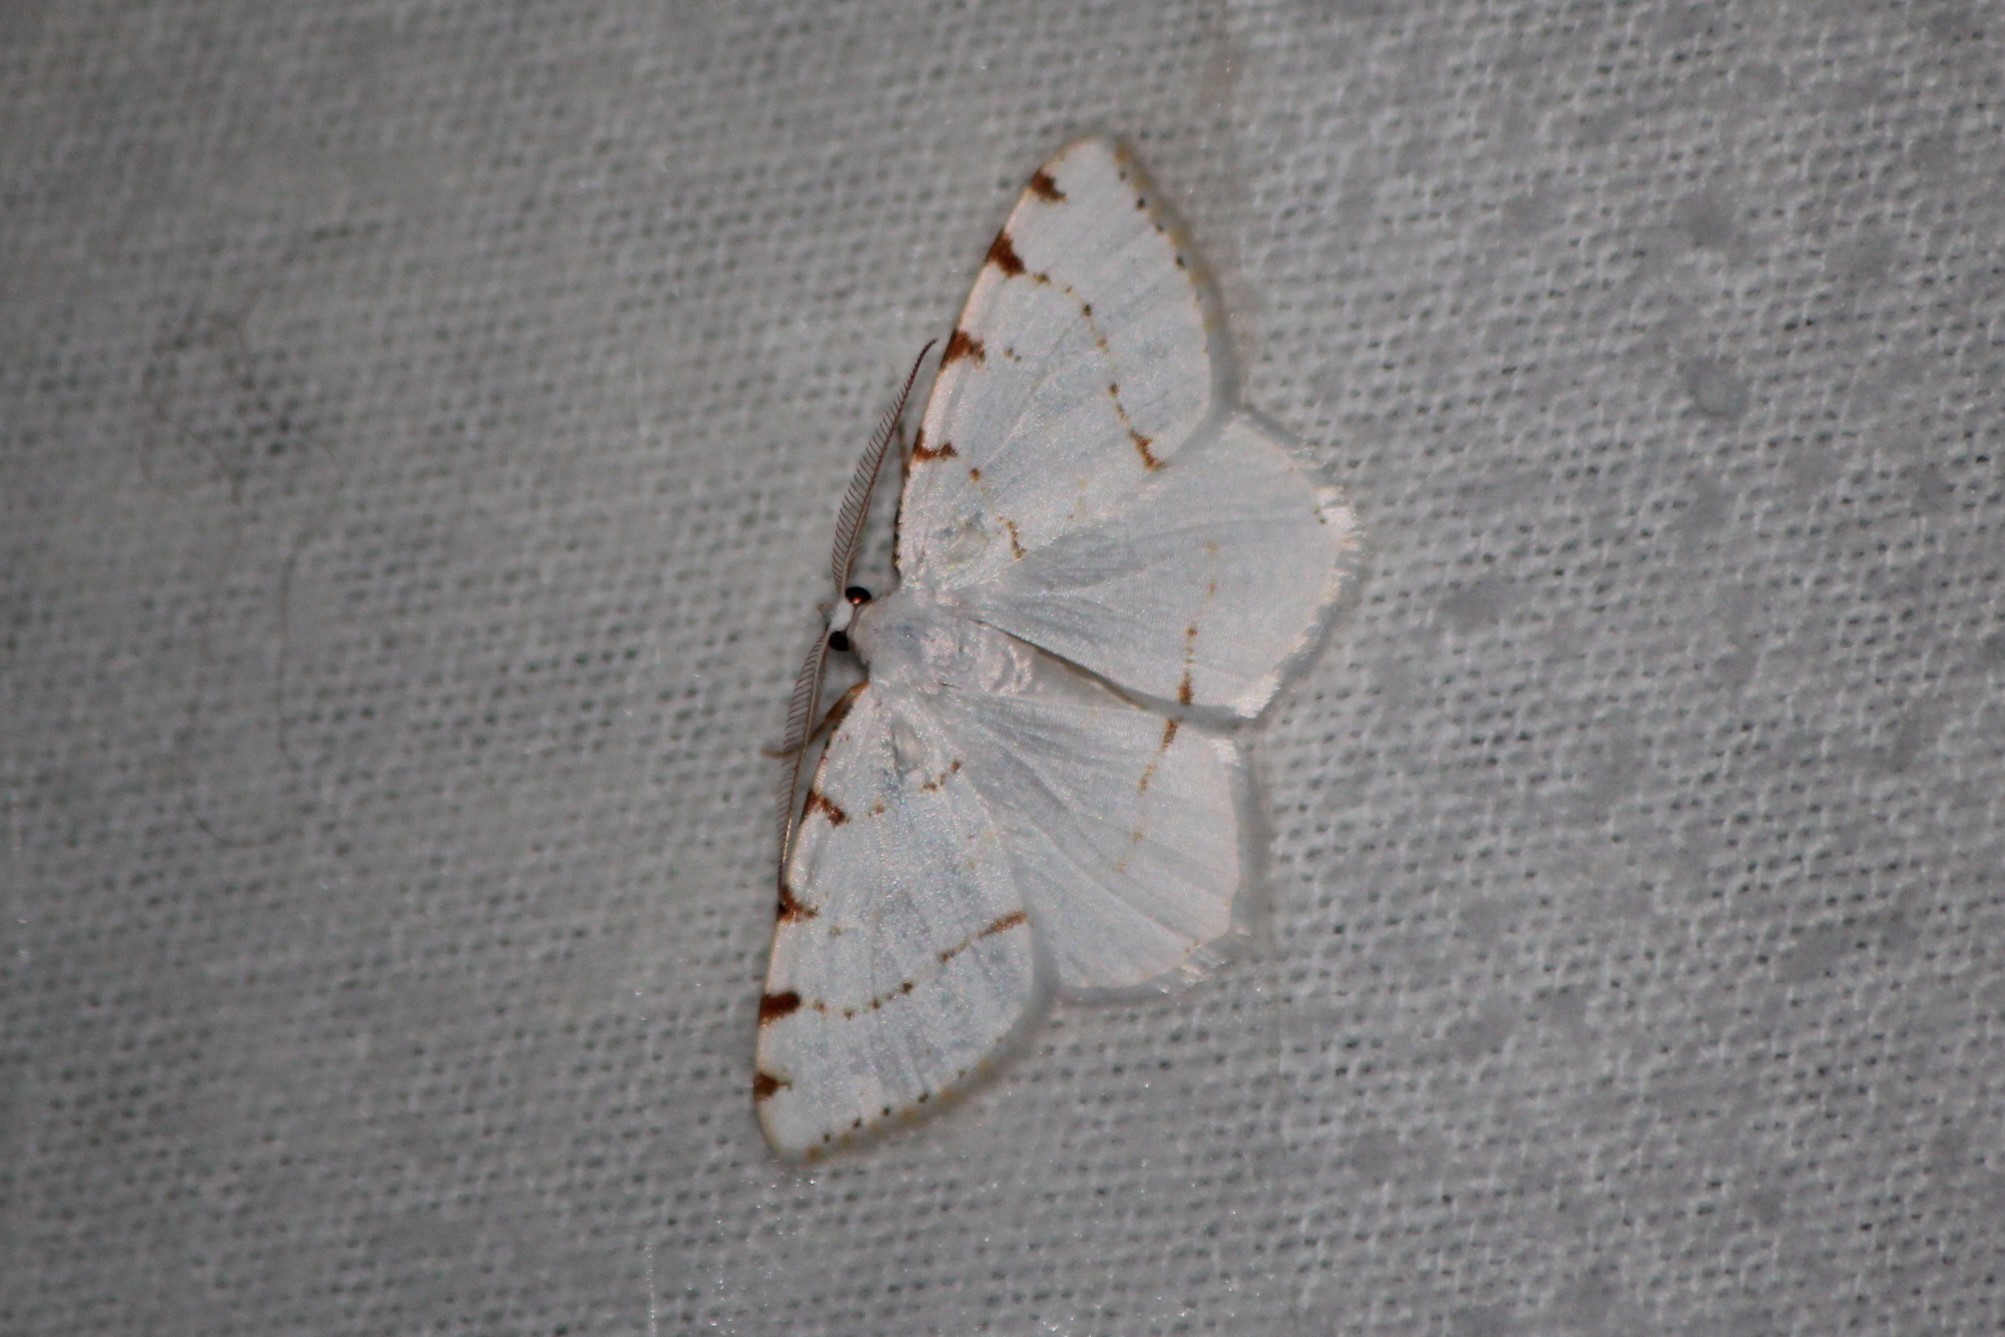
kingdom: Animalia
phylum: Arthropoda
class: Insecta
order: Lepidoptera
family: Geometridae
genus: Macaria
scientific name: Macaria pustularia
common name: Lesser maple spanworm moth
